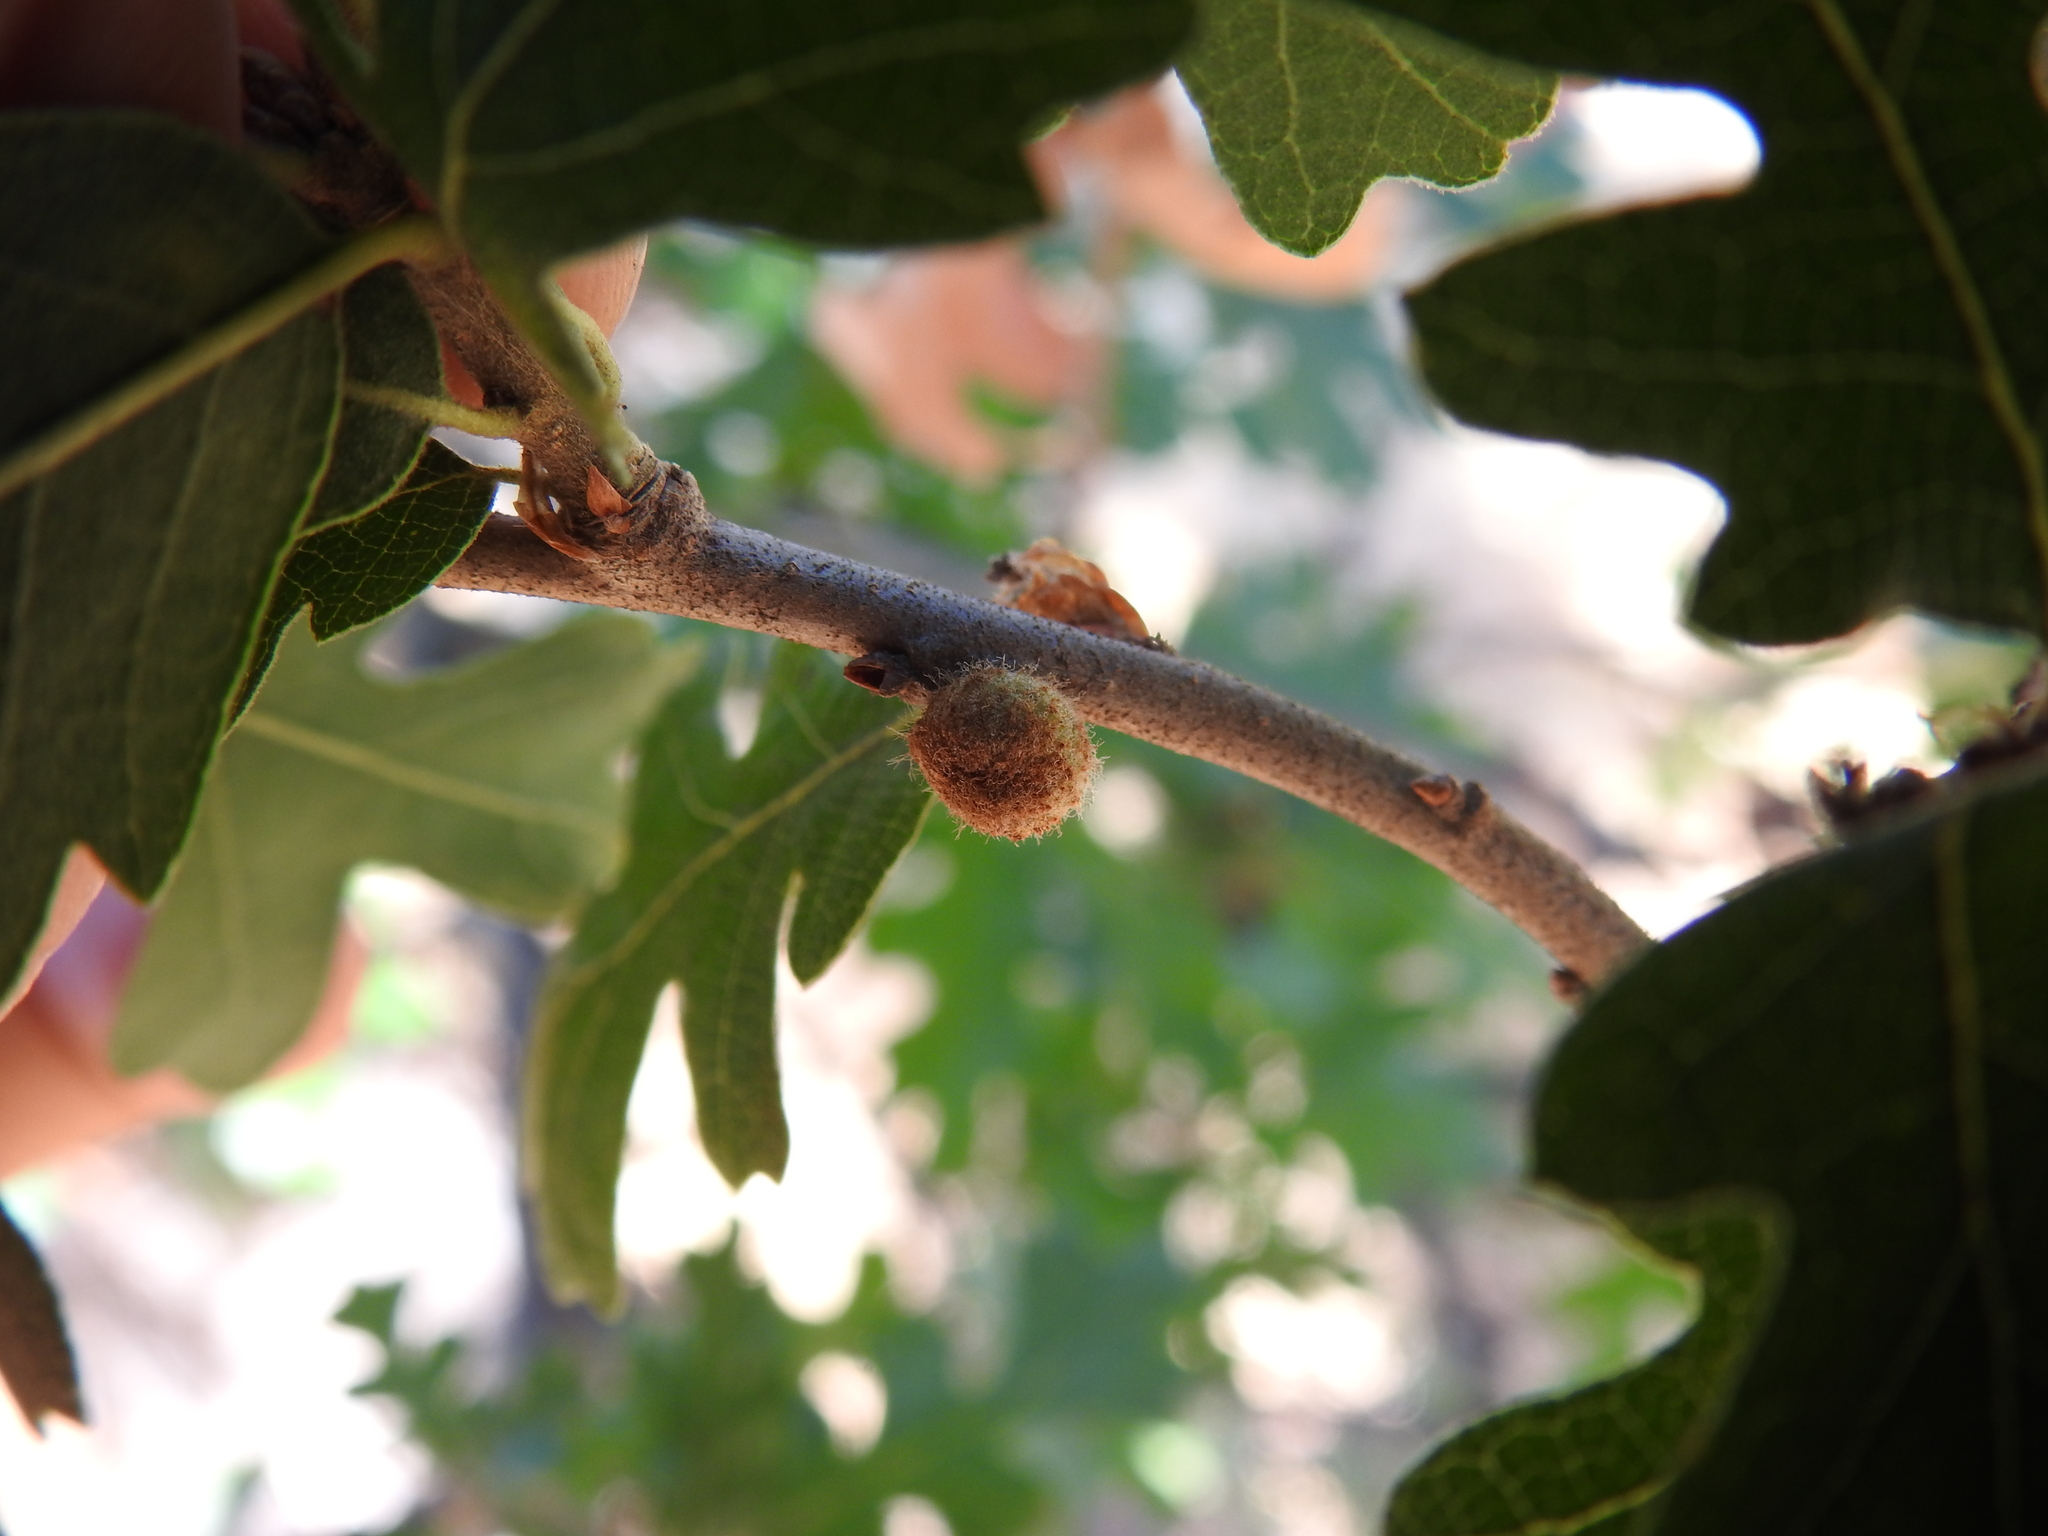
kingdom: Animalia
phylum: Arthropoda
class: Insecta
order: Hymenoptera
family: Cynipidae
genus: Burnettweldia
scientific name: Burnettweldia
